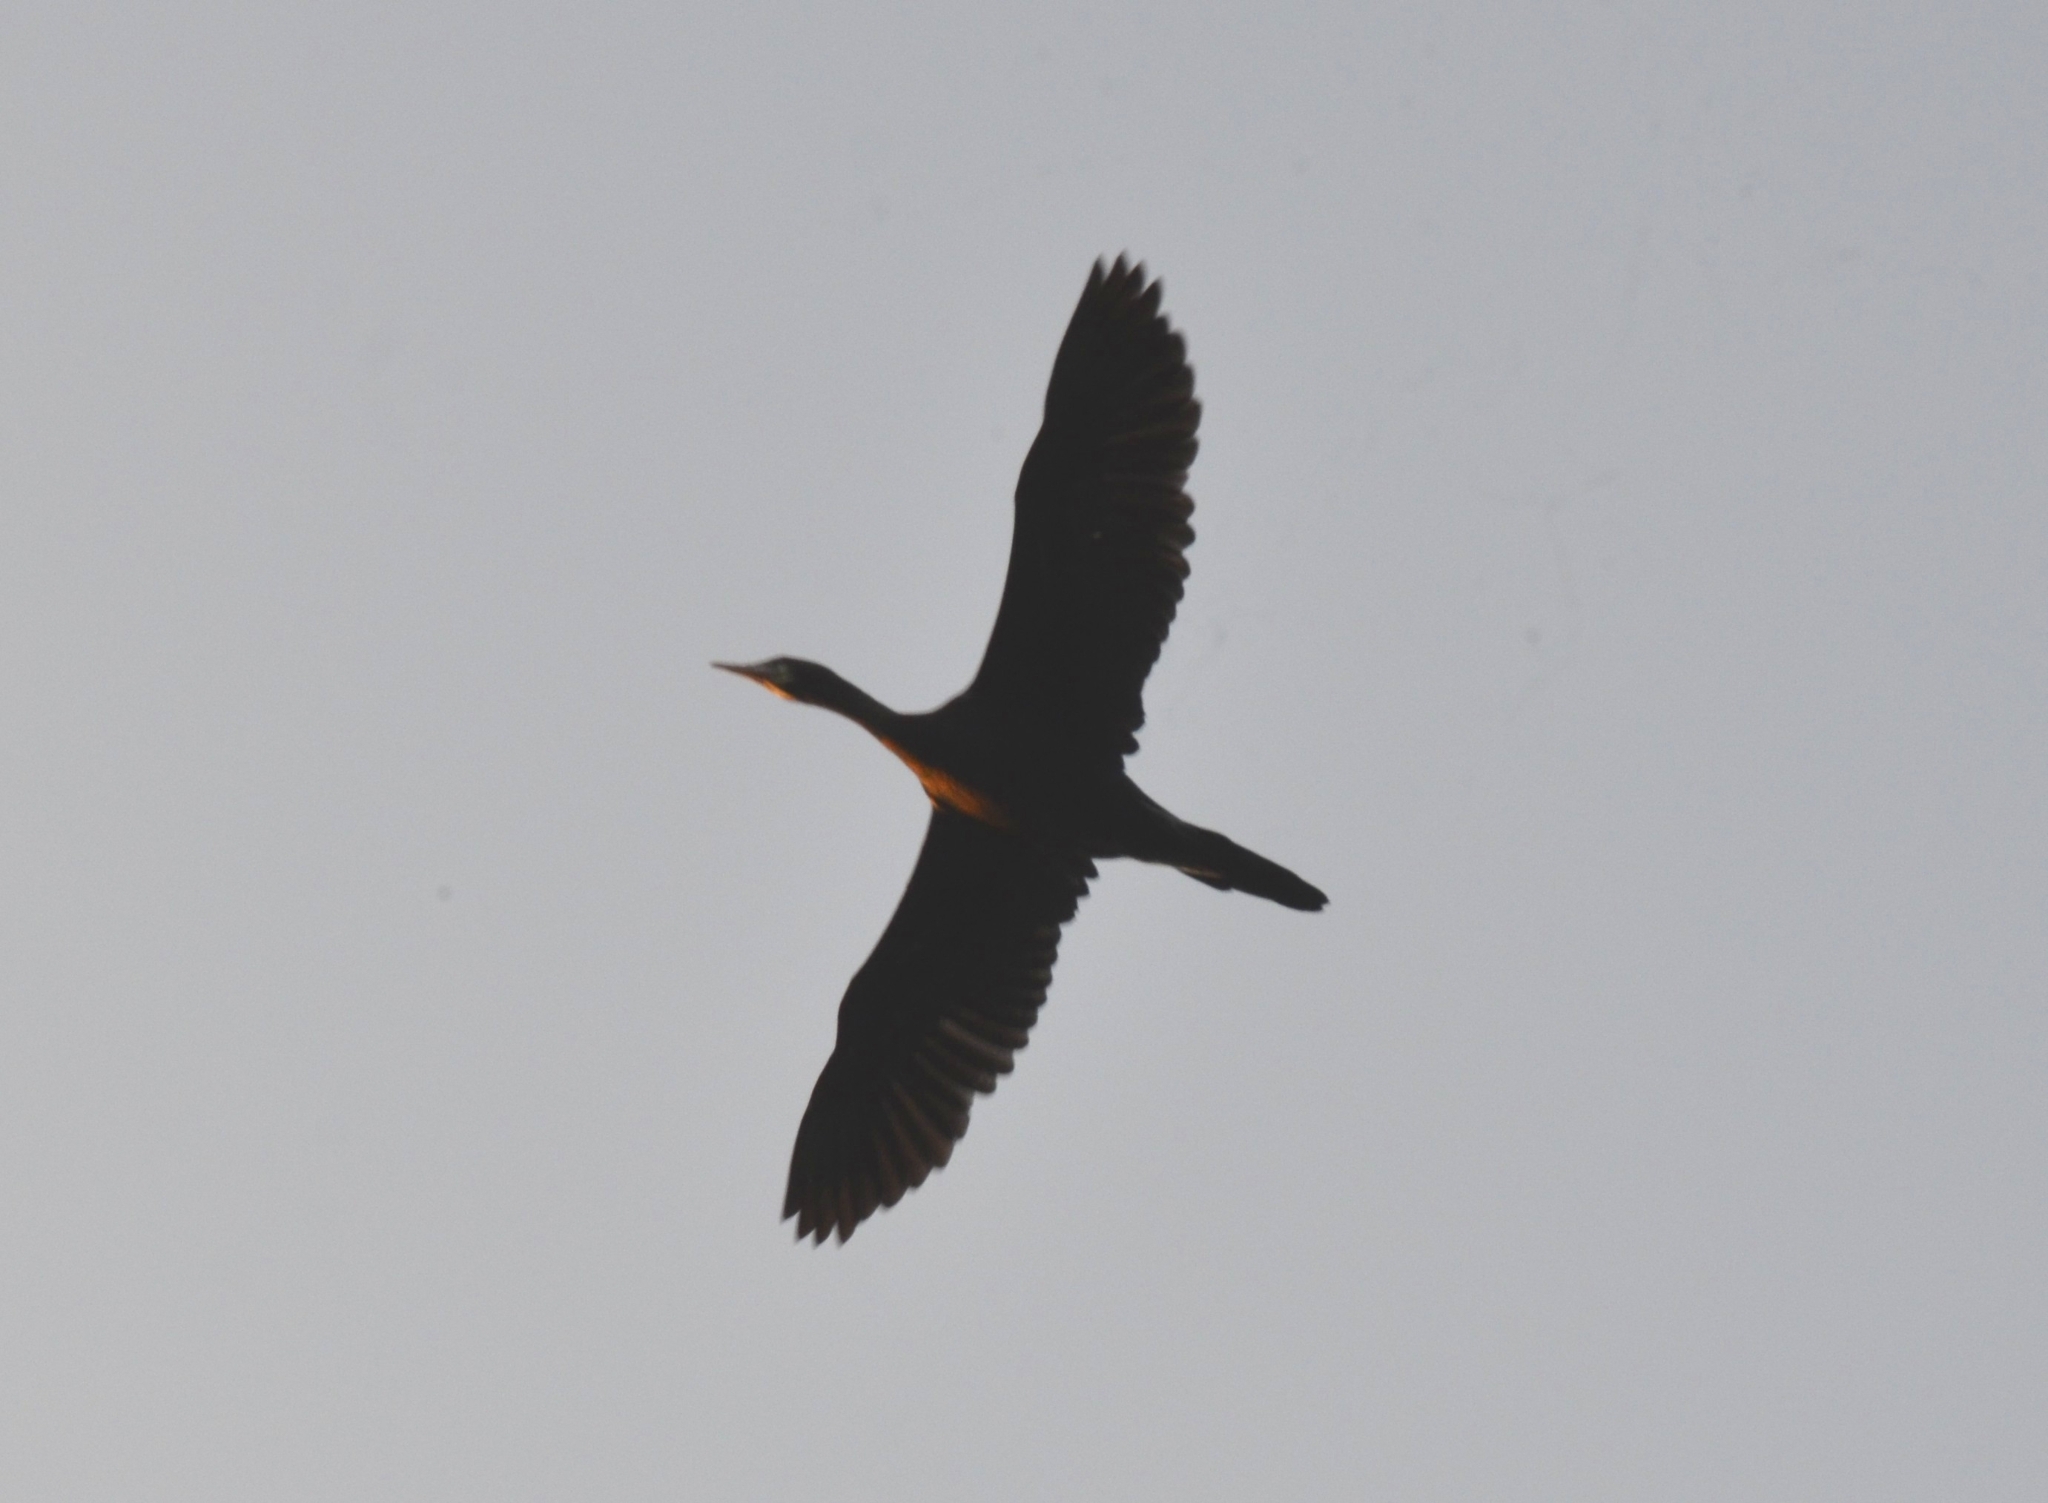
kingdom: Animalia
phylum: Chordata
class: Aves
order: Suliformes
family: Phalacrocoracidae
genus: Phalacrocorax
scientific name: Phalacrocorax fuscicollis
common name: Indian cormorant
